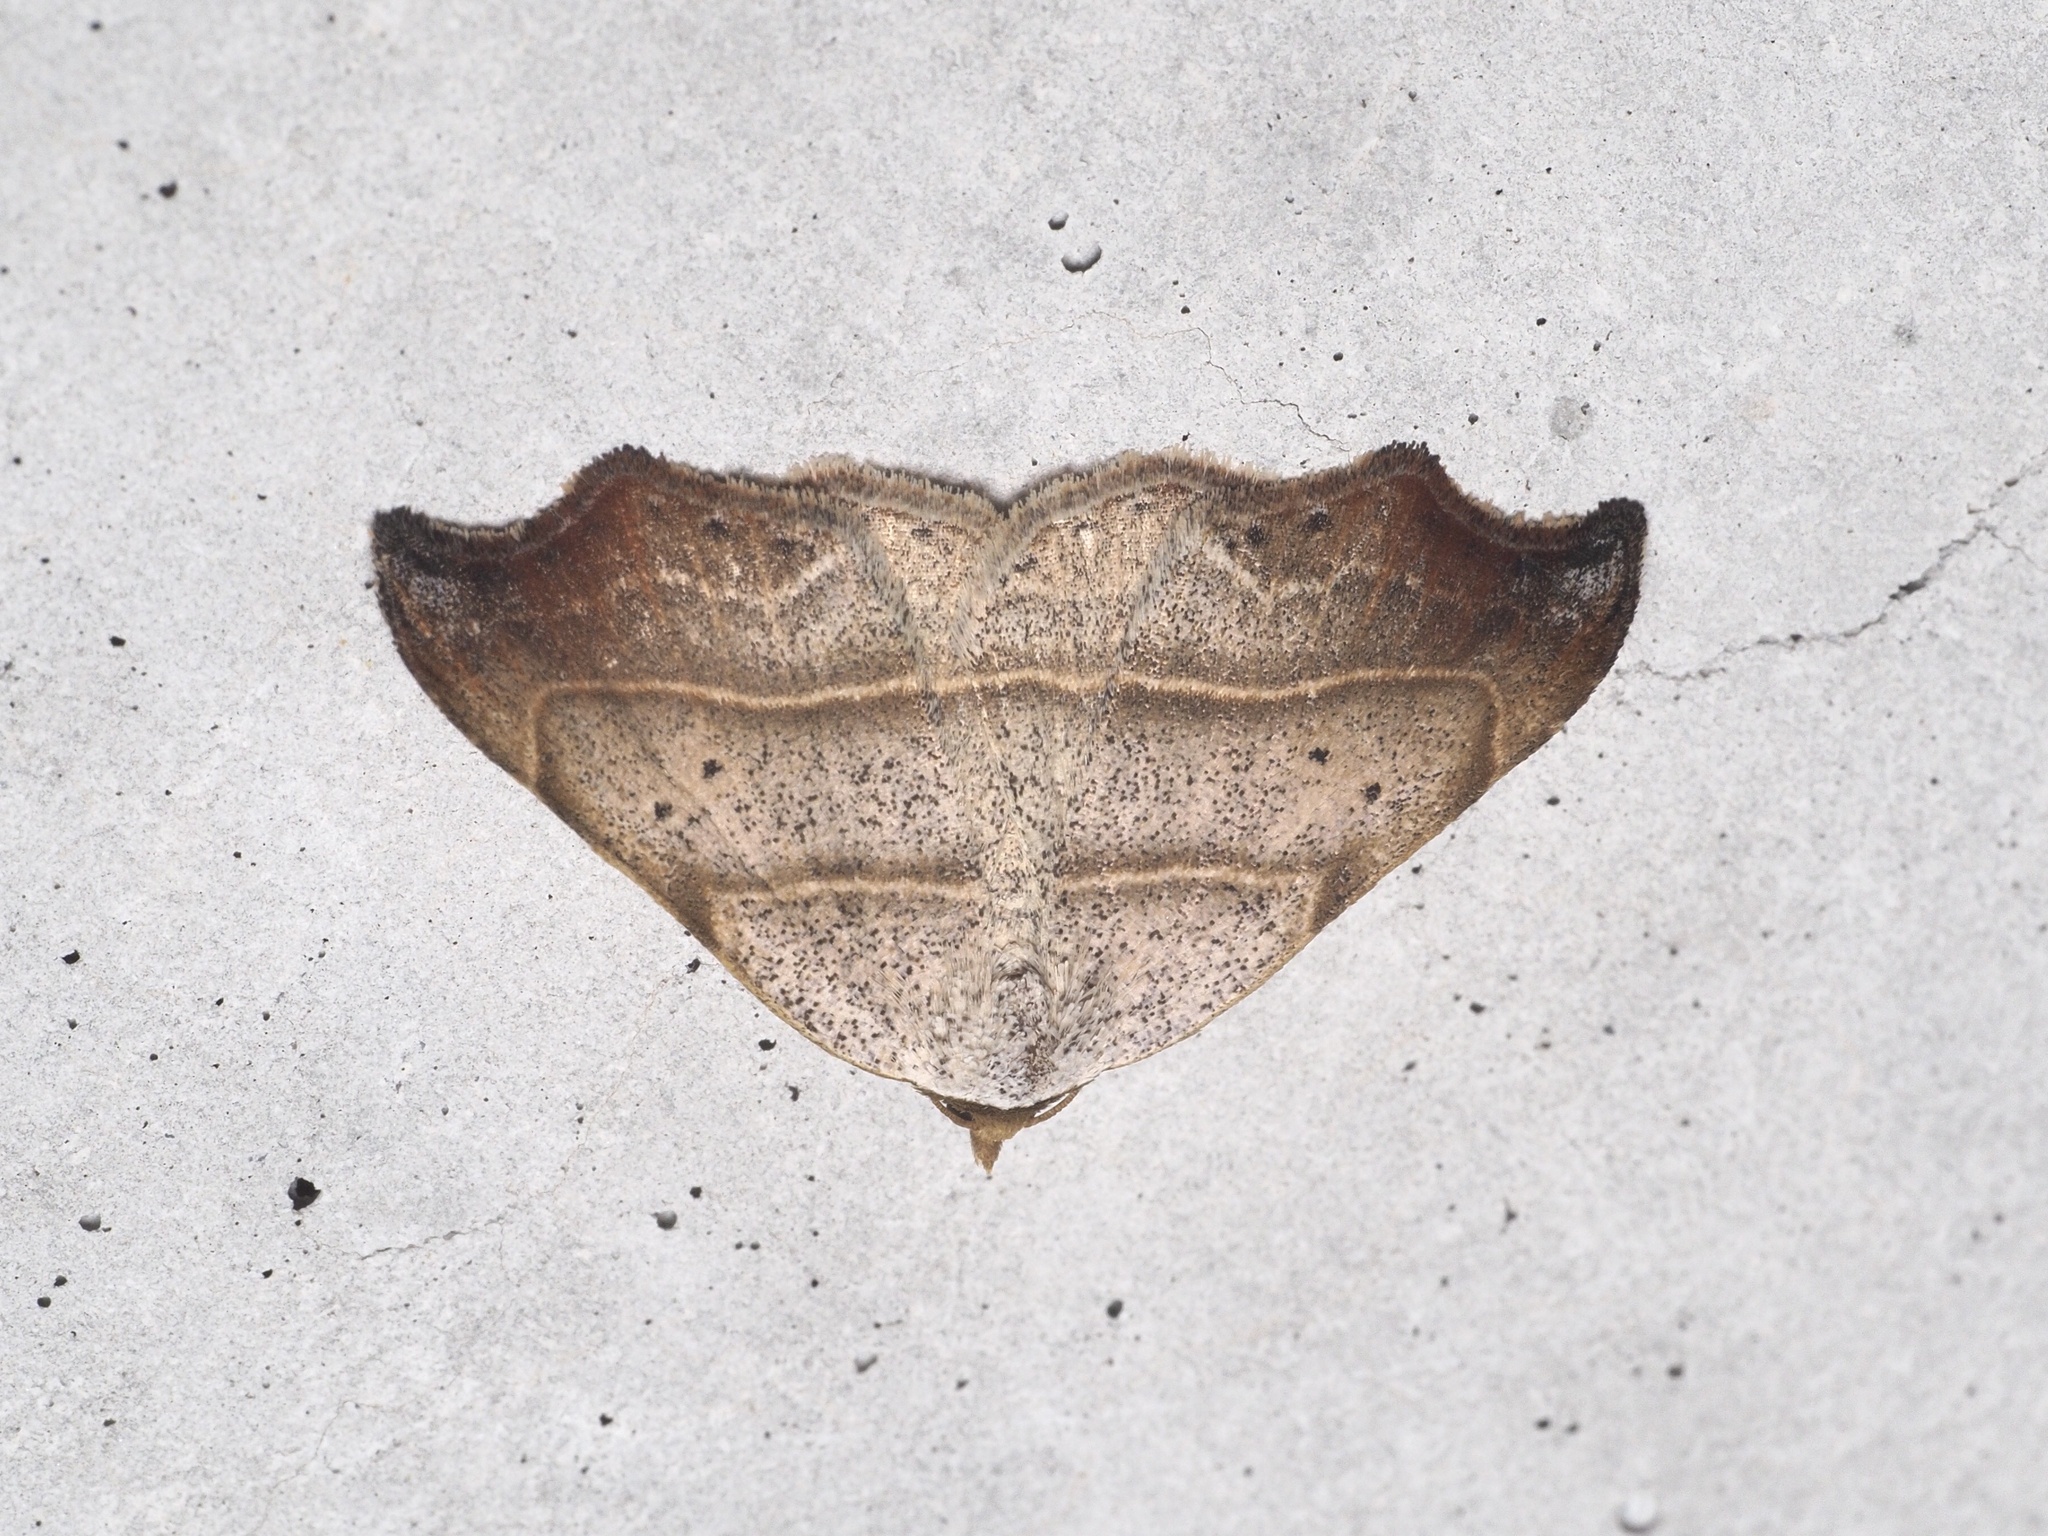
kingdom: Animalia
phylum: Arthropoda
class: Insecta
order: Lepidoptera
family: Erebidae
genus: Laspeyria
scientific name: Laspeyria flexula
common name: Beautiful hook-tip
